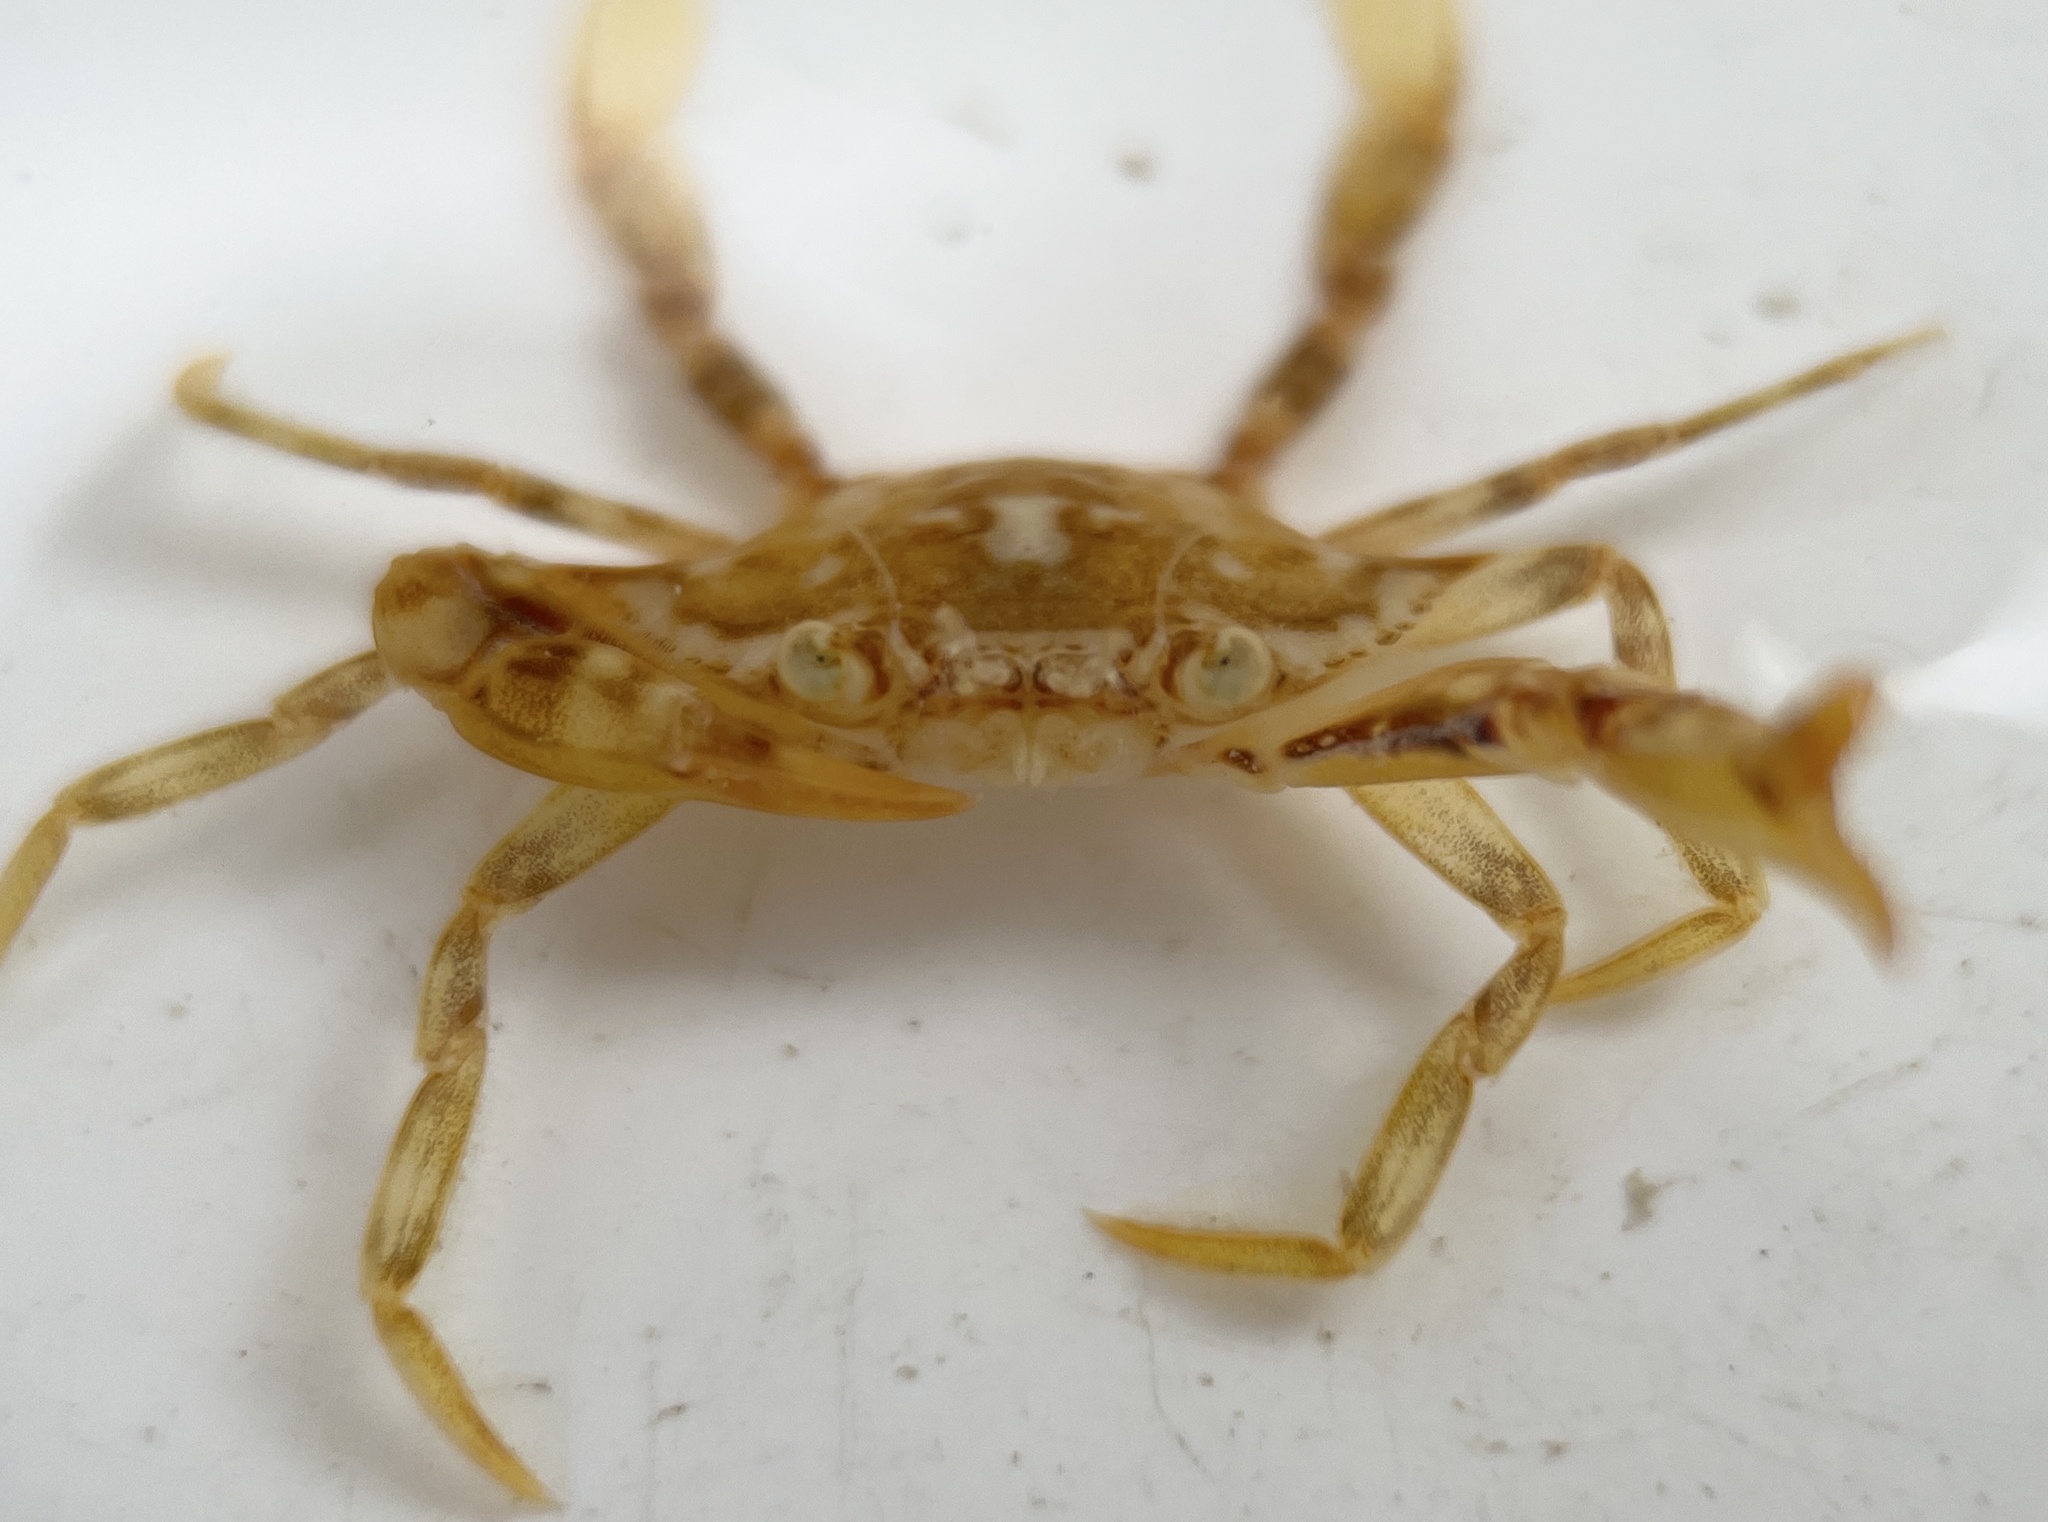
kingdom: Animalia
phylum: Arthropoda
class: Malacostraca
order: Decapoda
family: Portunidae
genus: Portunus
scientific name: Portunus sayi
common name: Sargassum crab
